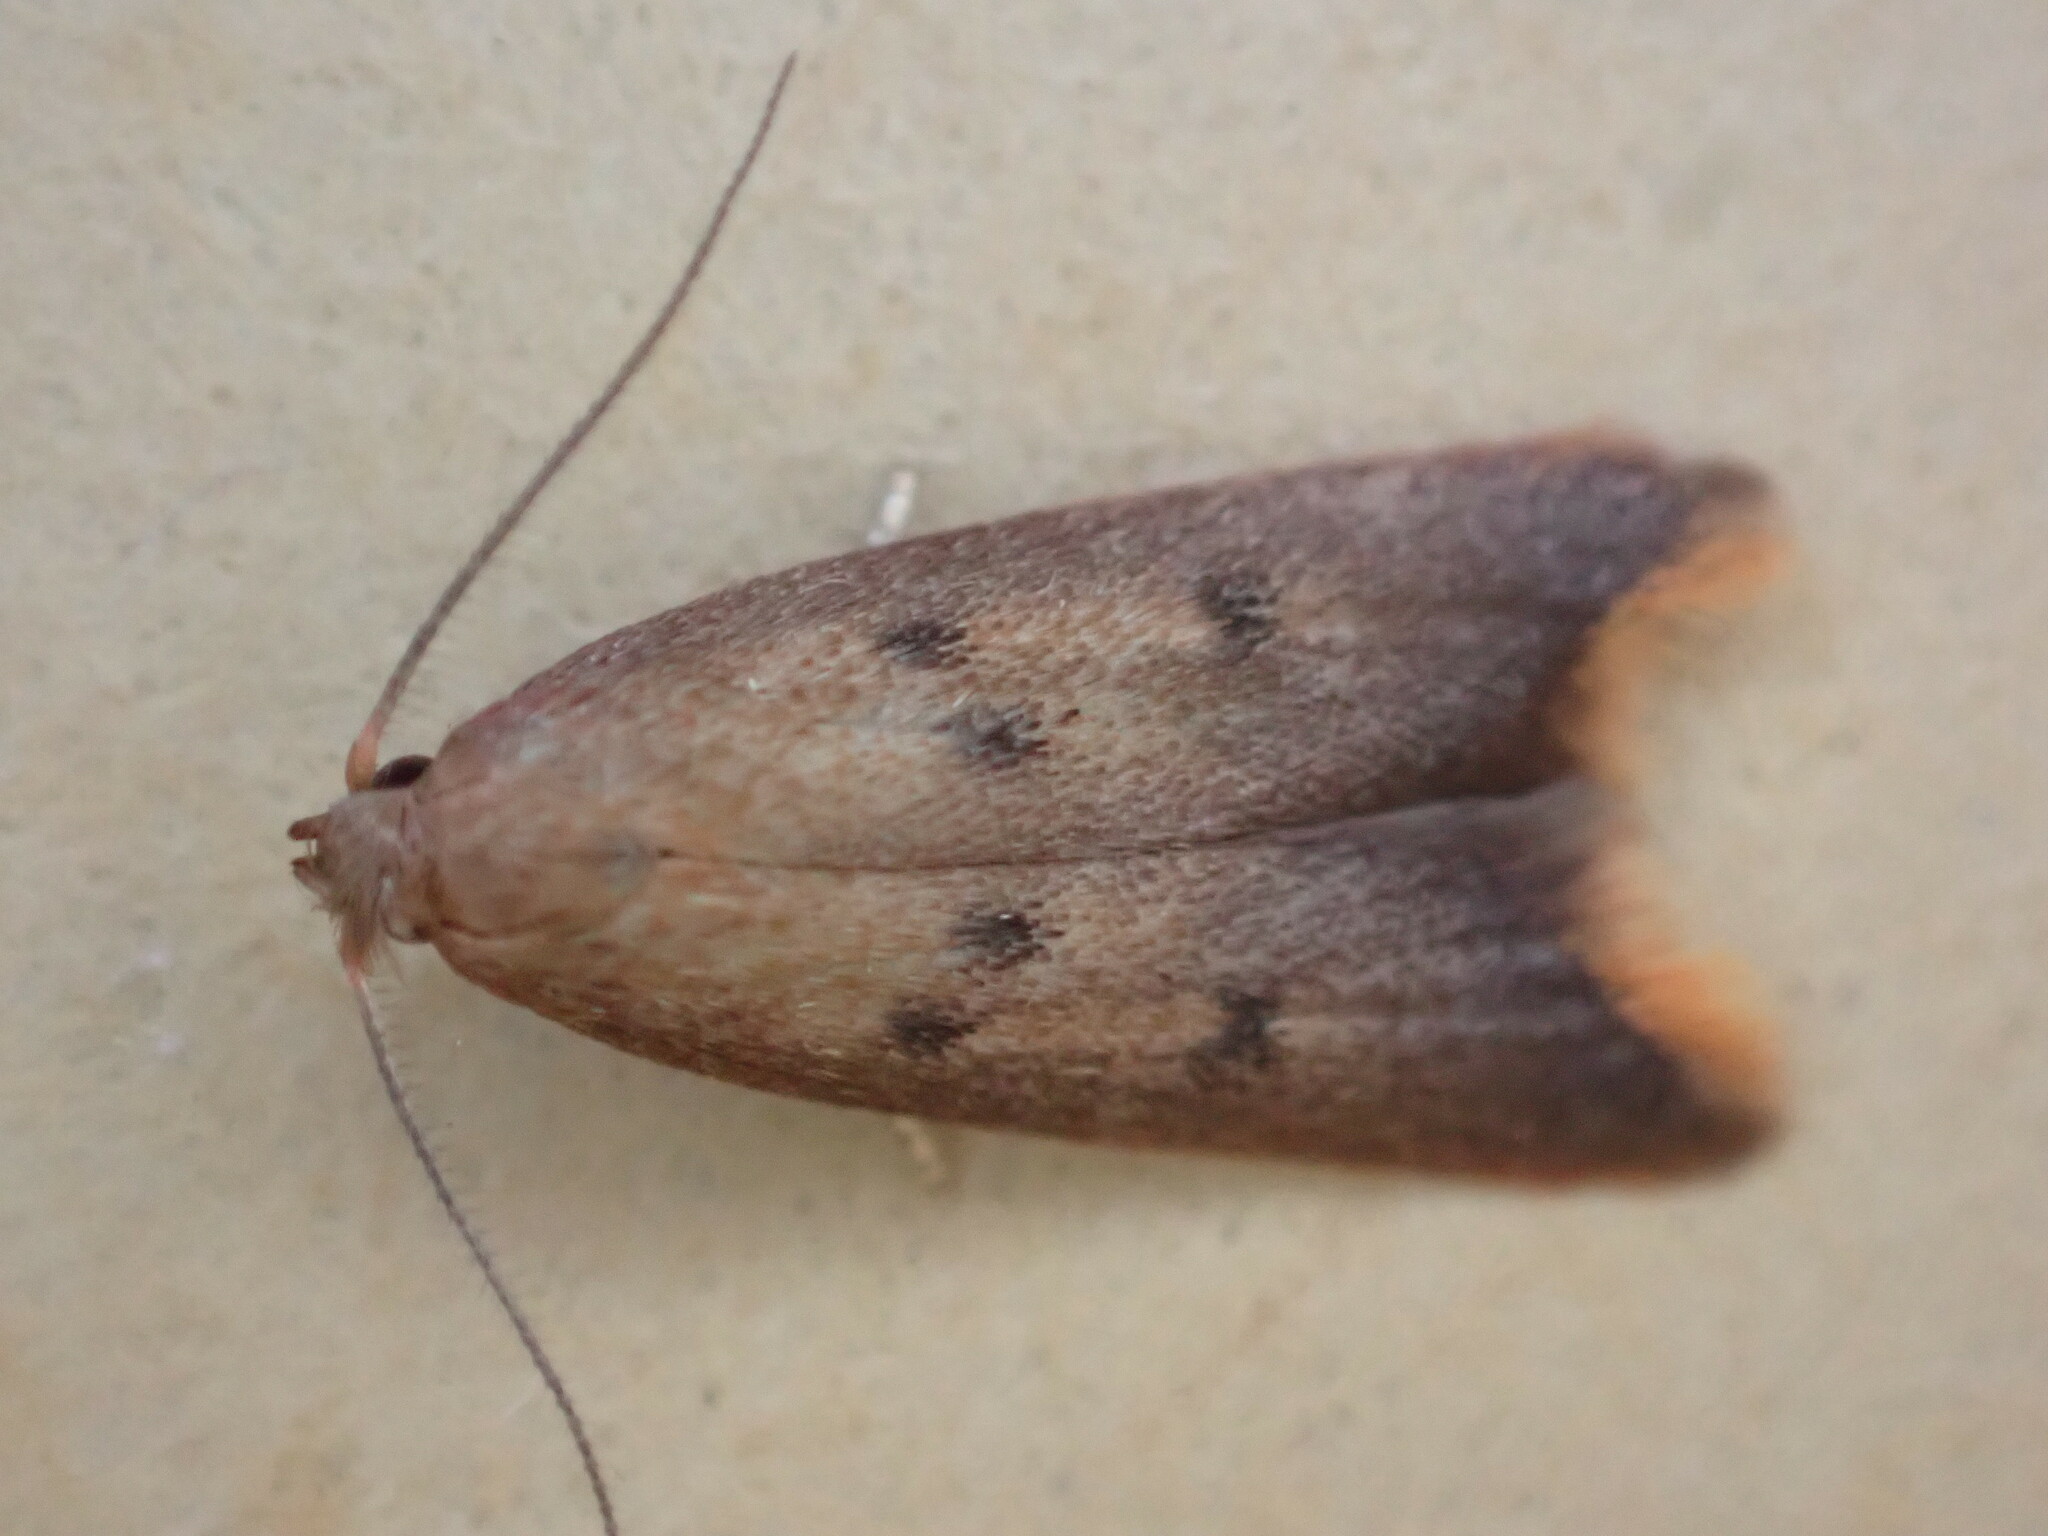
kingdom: Animalia
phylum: Arthropoda
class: Insecta
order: Lepidoptera
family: Oecophoridae
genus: Tachystola
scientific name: Tachystola acroxantha
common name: Ruddy streak
